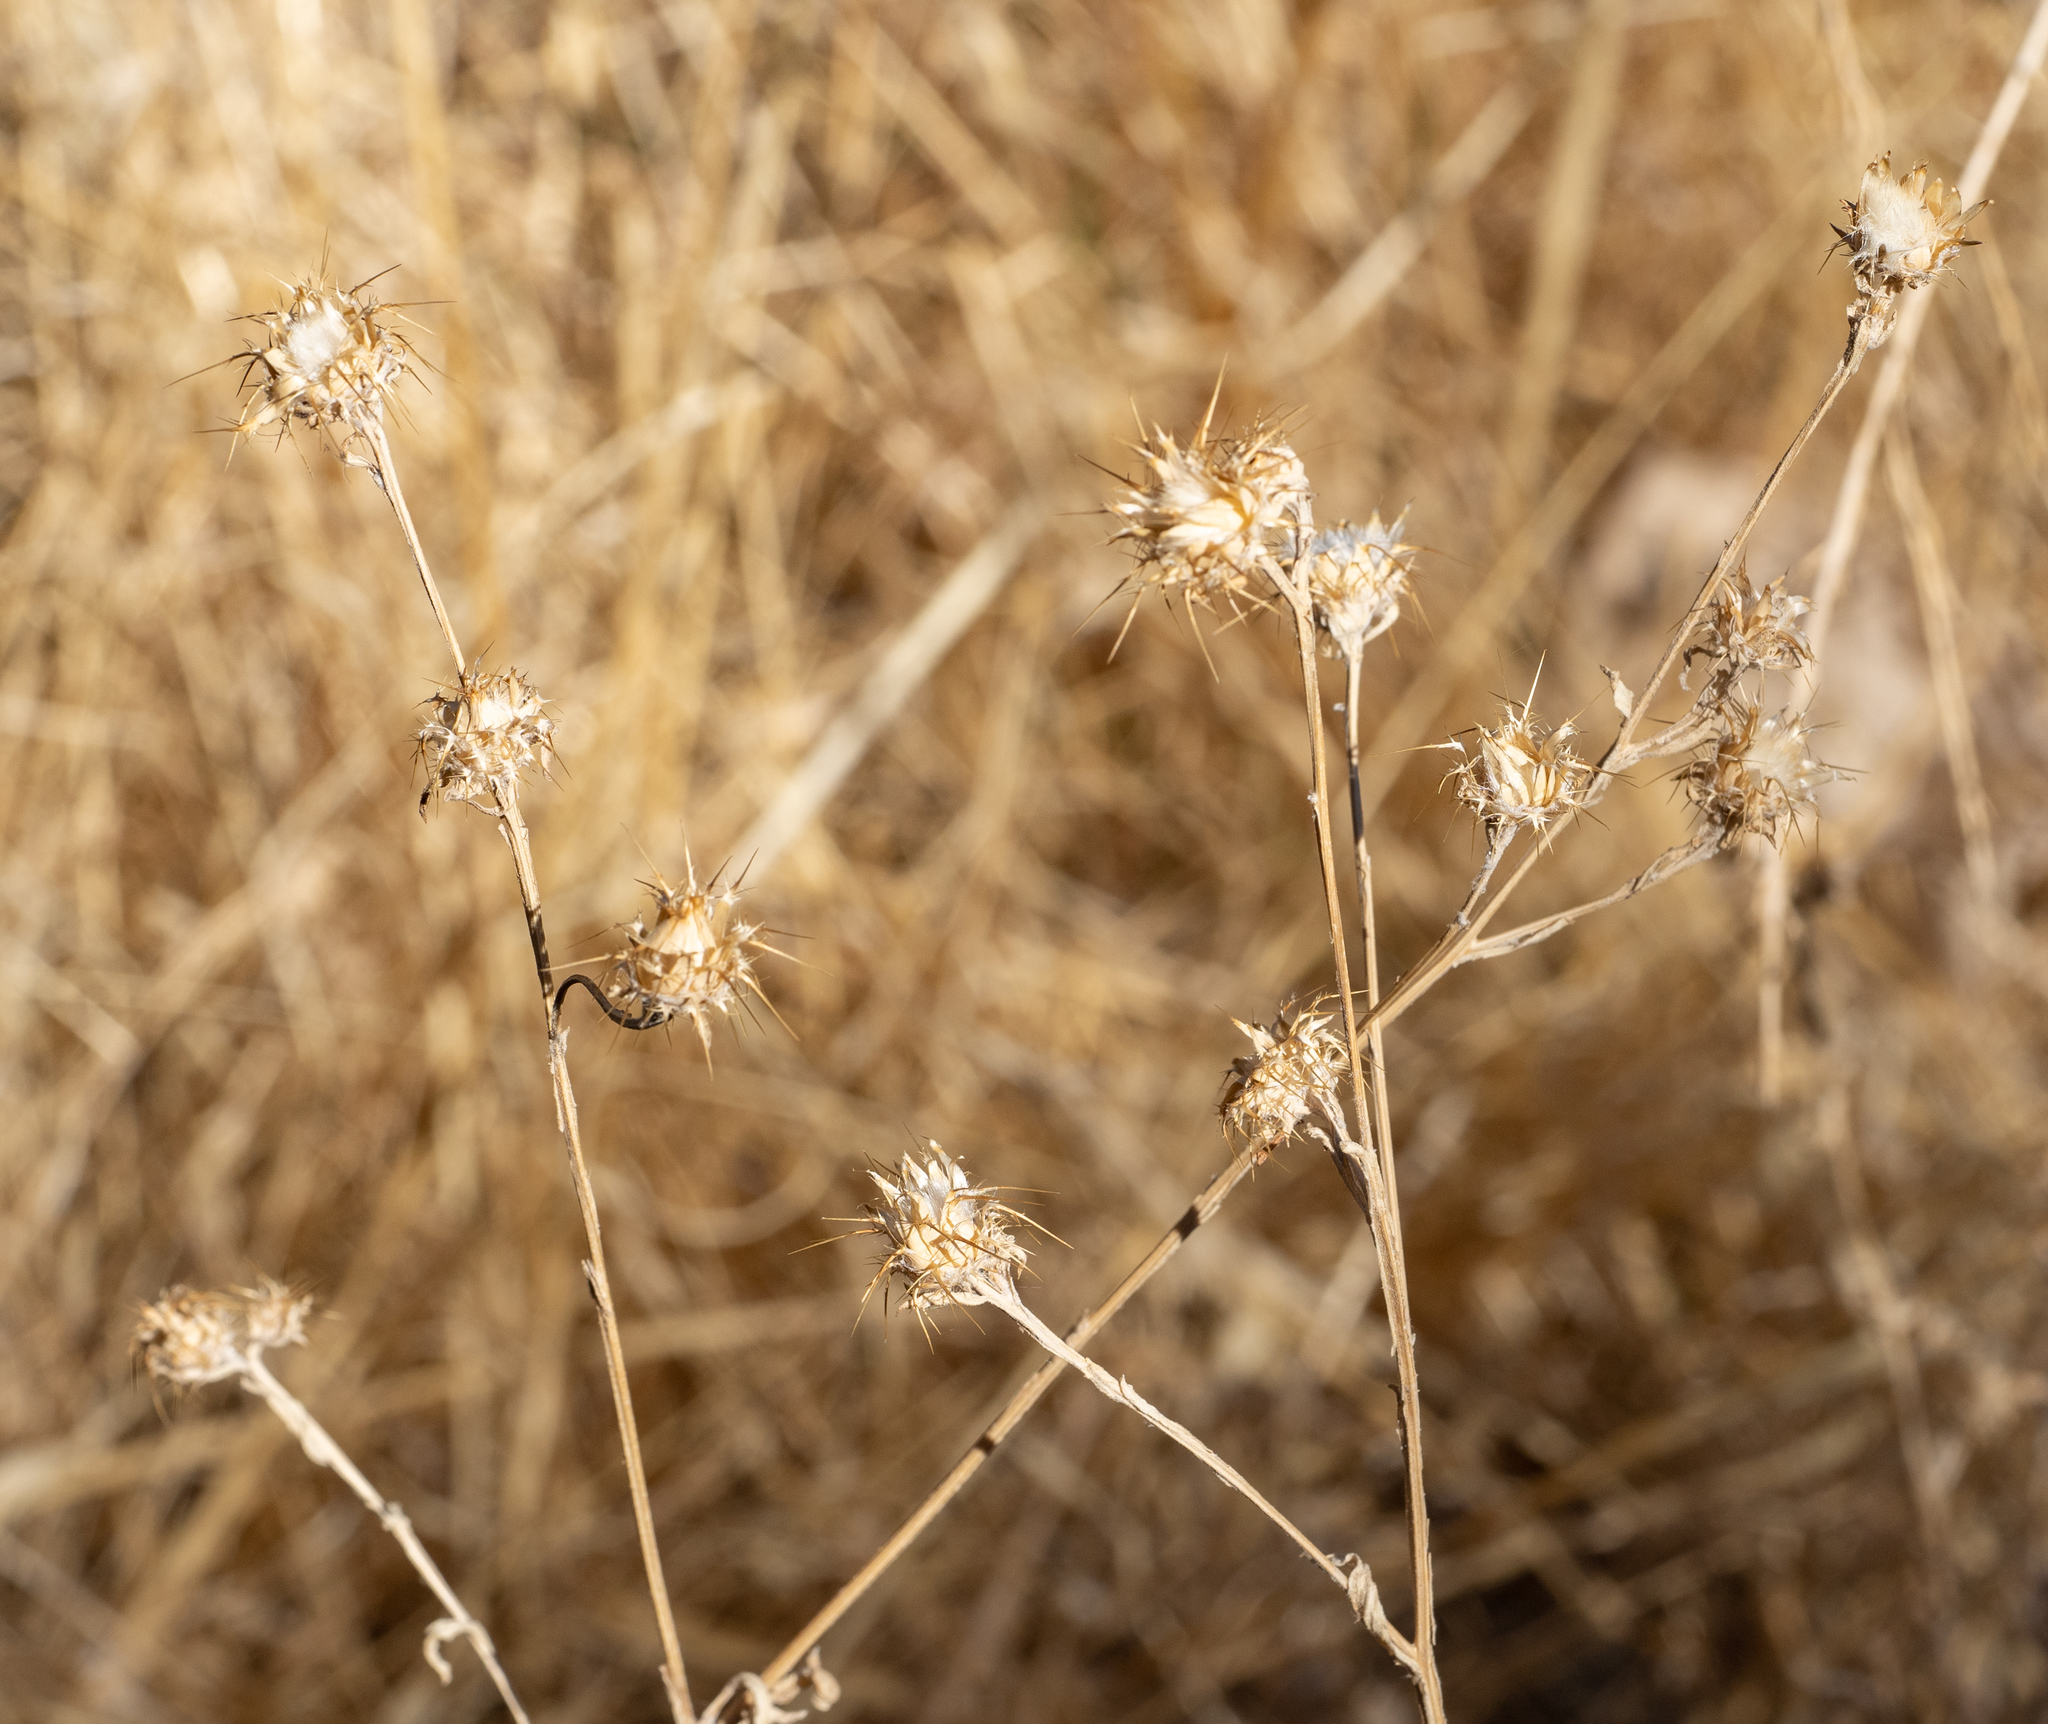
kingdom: Plantae
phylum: Tracheophyta
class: Magnoliopsida
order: Asterales
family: Asteraceae
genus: Centaurea
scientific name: Centaurea melitensis
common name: Maltese star-thistle
